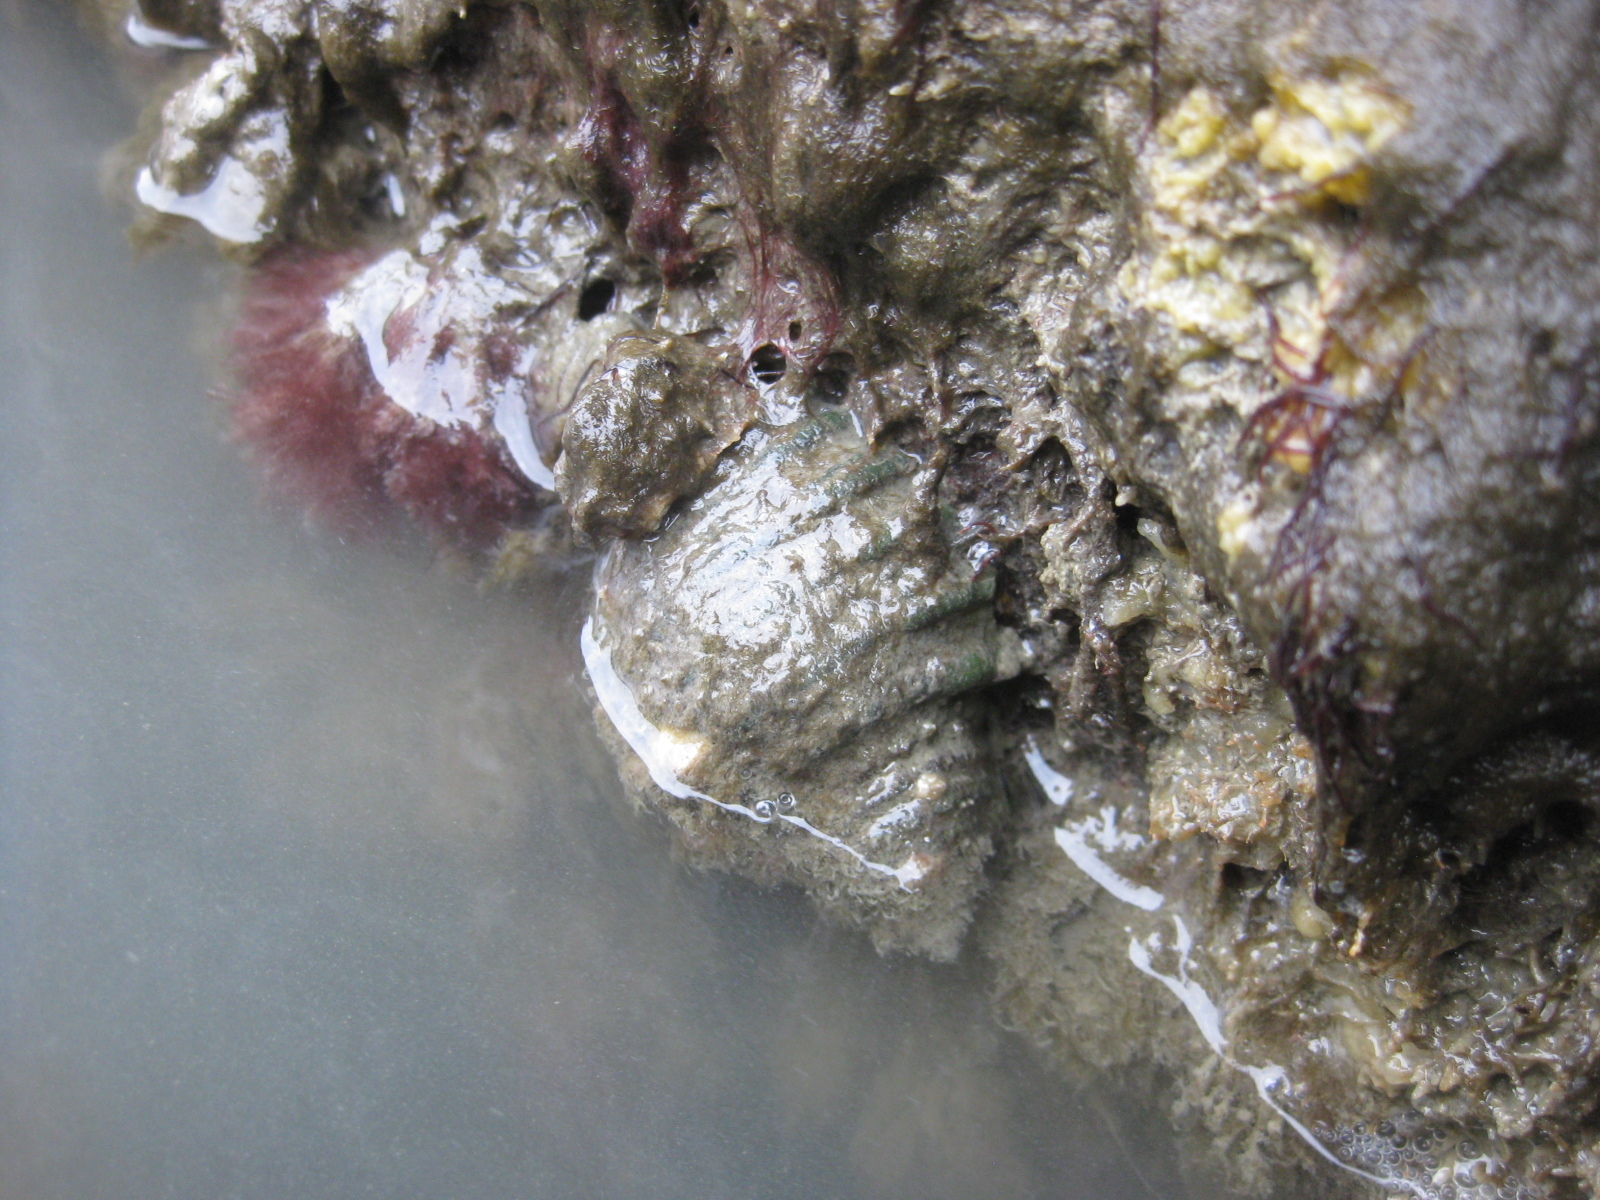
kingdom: Animalia
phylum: Mollusca
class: Gastropoda
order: Neogastropoda
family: Muricidae
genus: Dicathais
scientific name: Dicathais orbita
